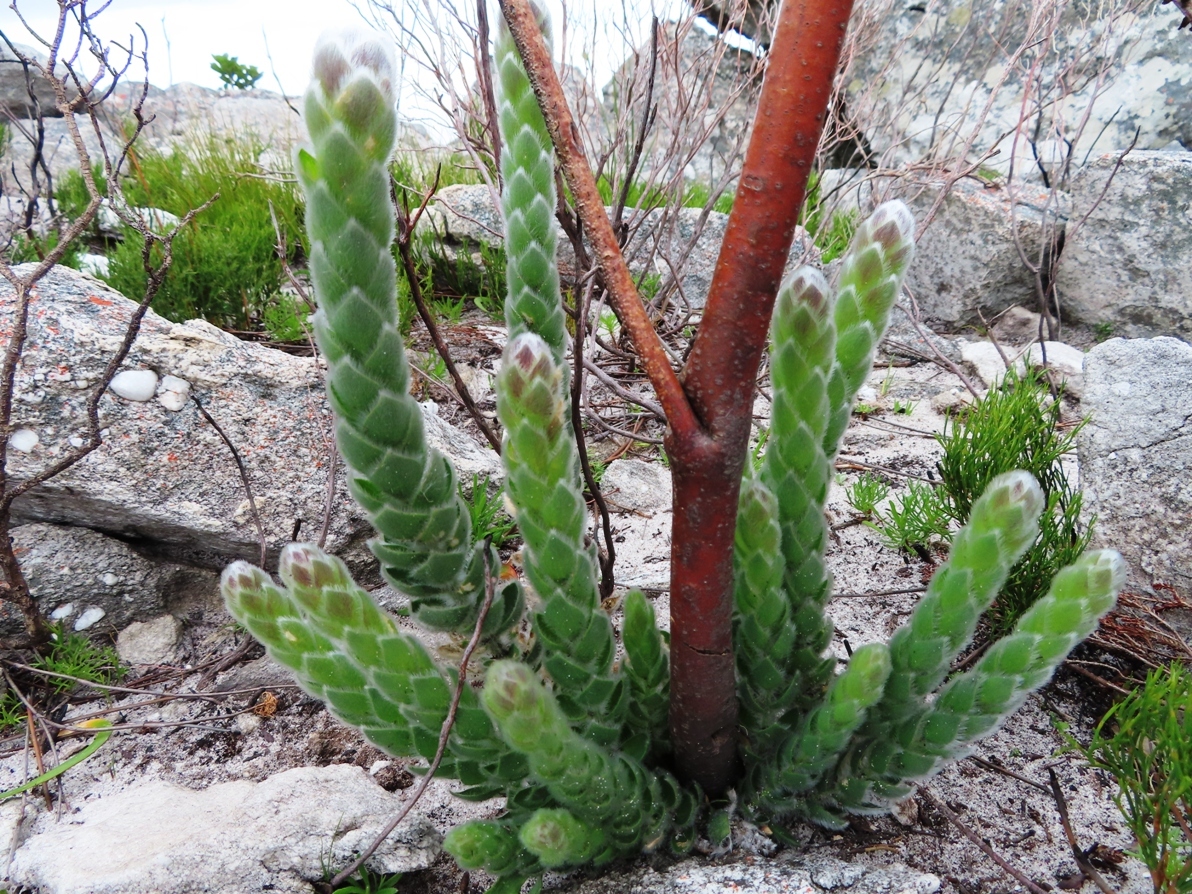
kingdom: Plantae
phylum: Tracheophyta
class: Magnoliopsida
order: Fabales
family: Fabaceae
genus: Liparia
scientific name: Liparia vestita
